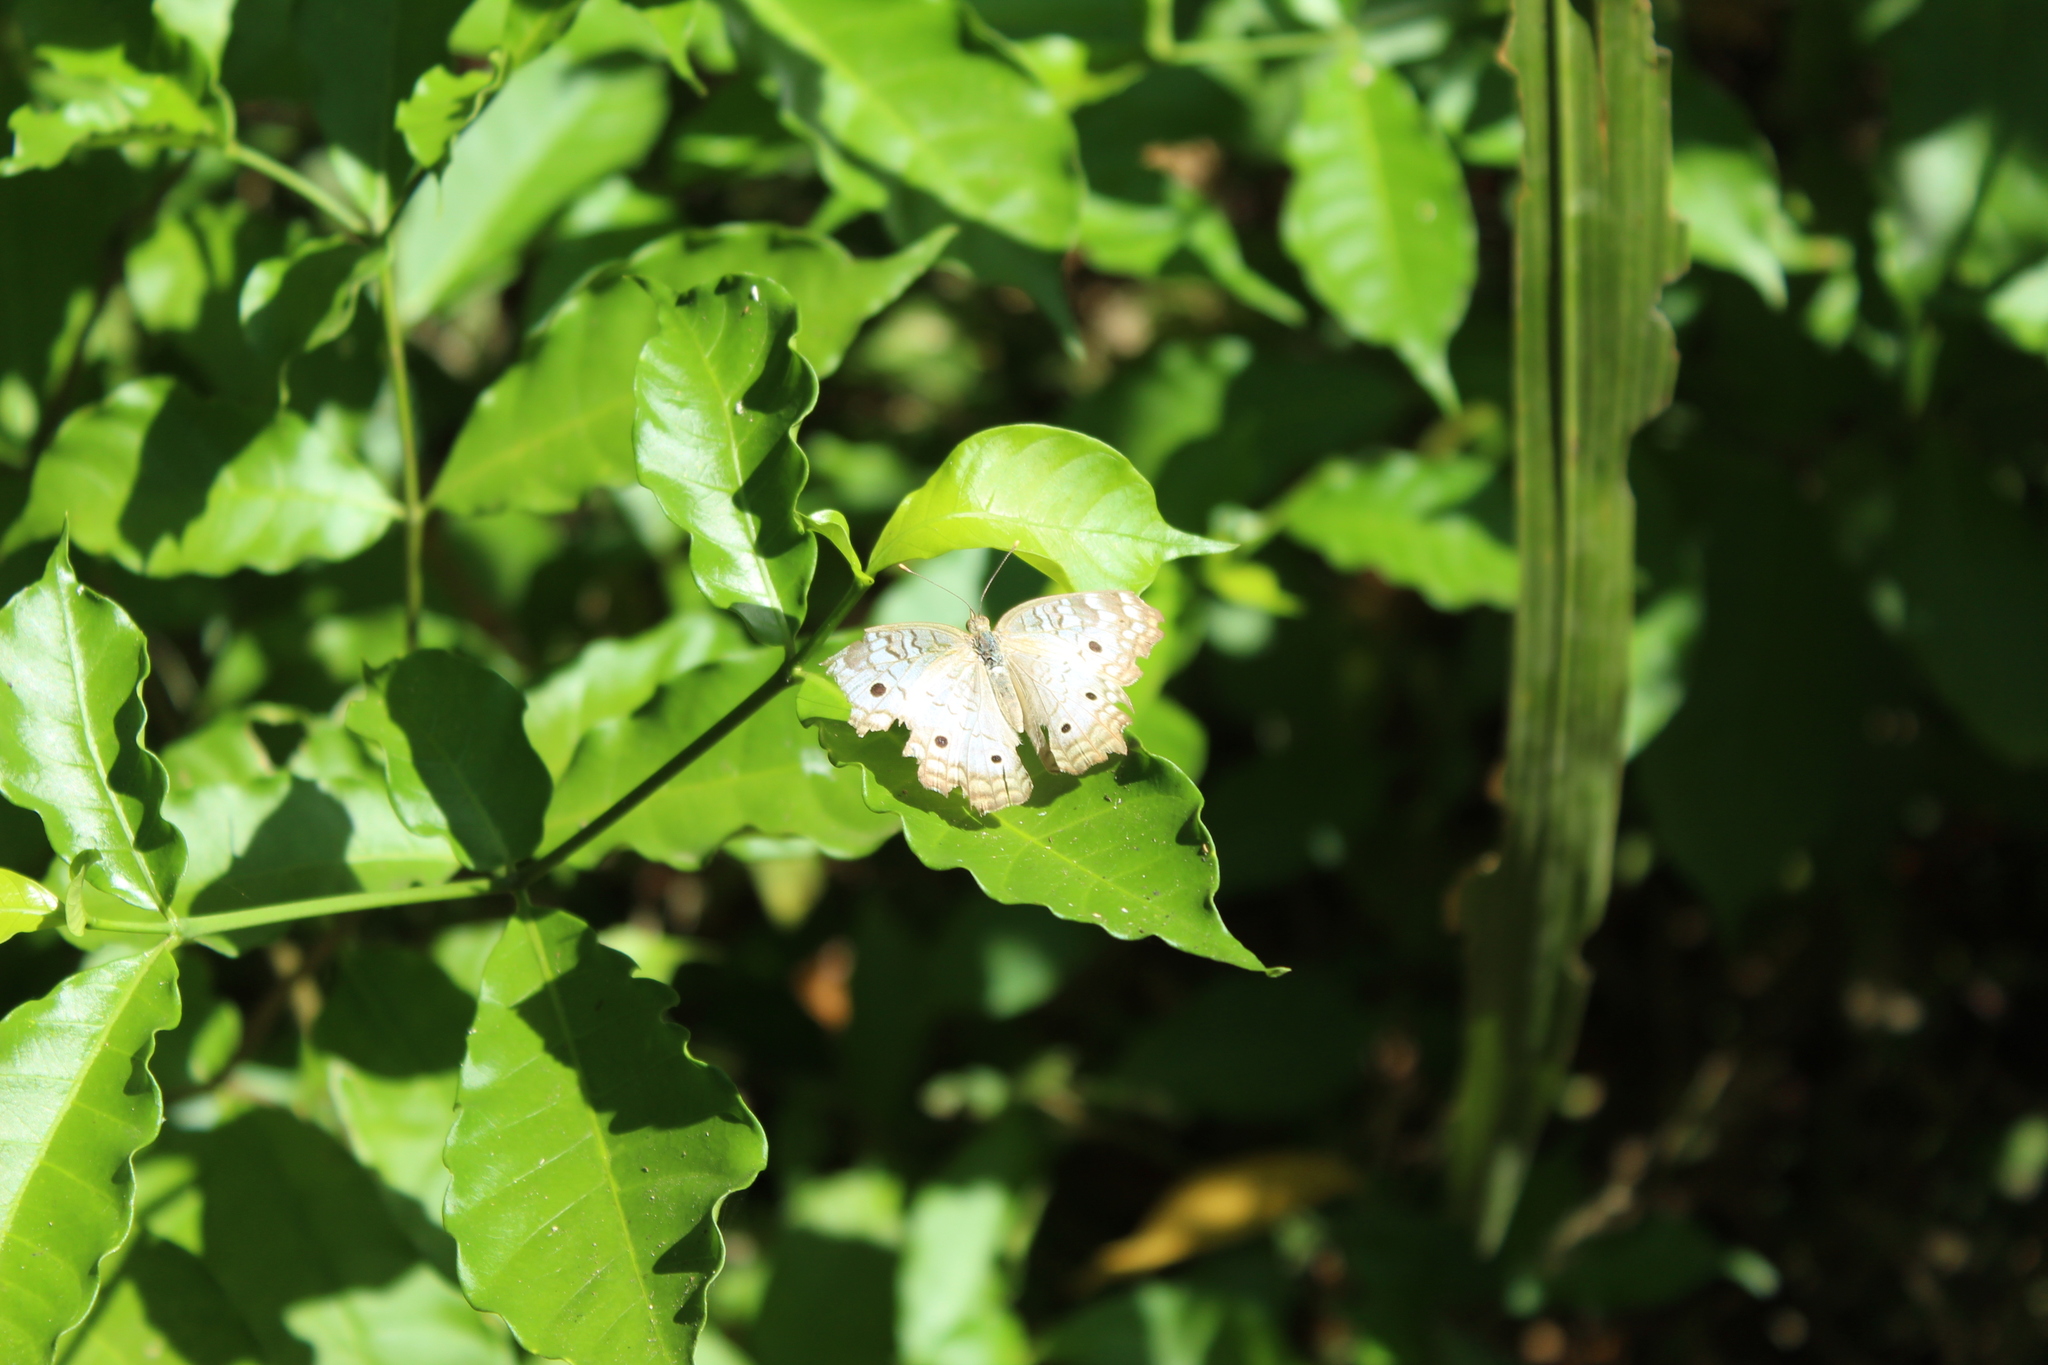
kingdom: Animalia
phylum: Arthropoda
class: Insecta
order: Lepidoptera
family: Nymphalidae
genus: Anartia
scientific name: Anartia jatrophae
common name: White peacock
